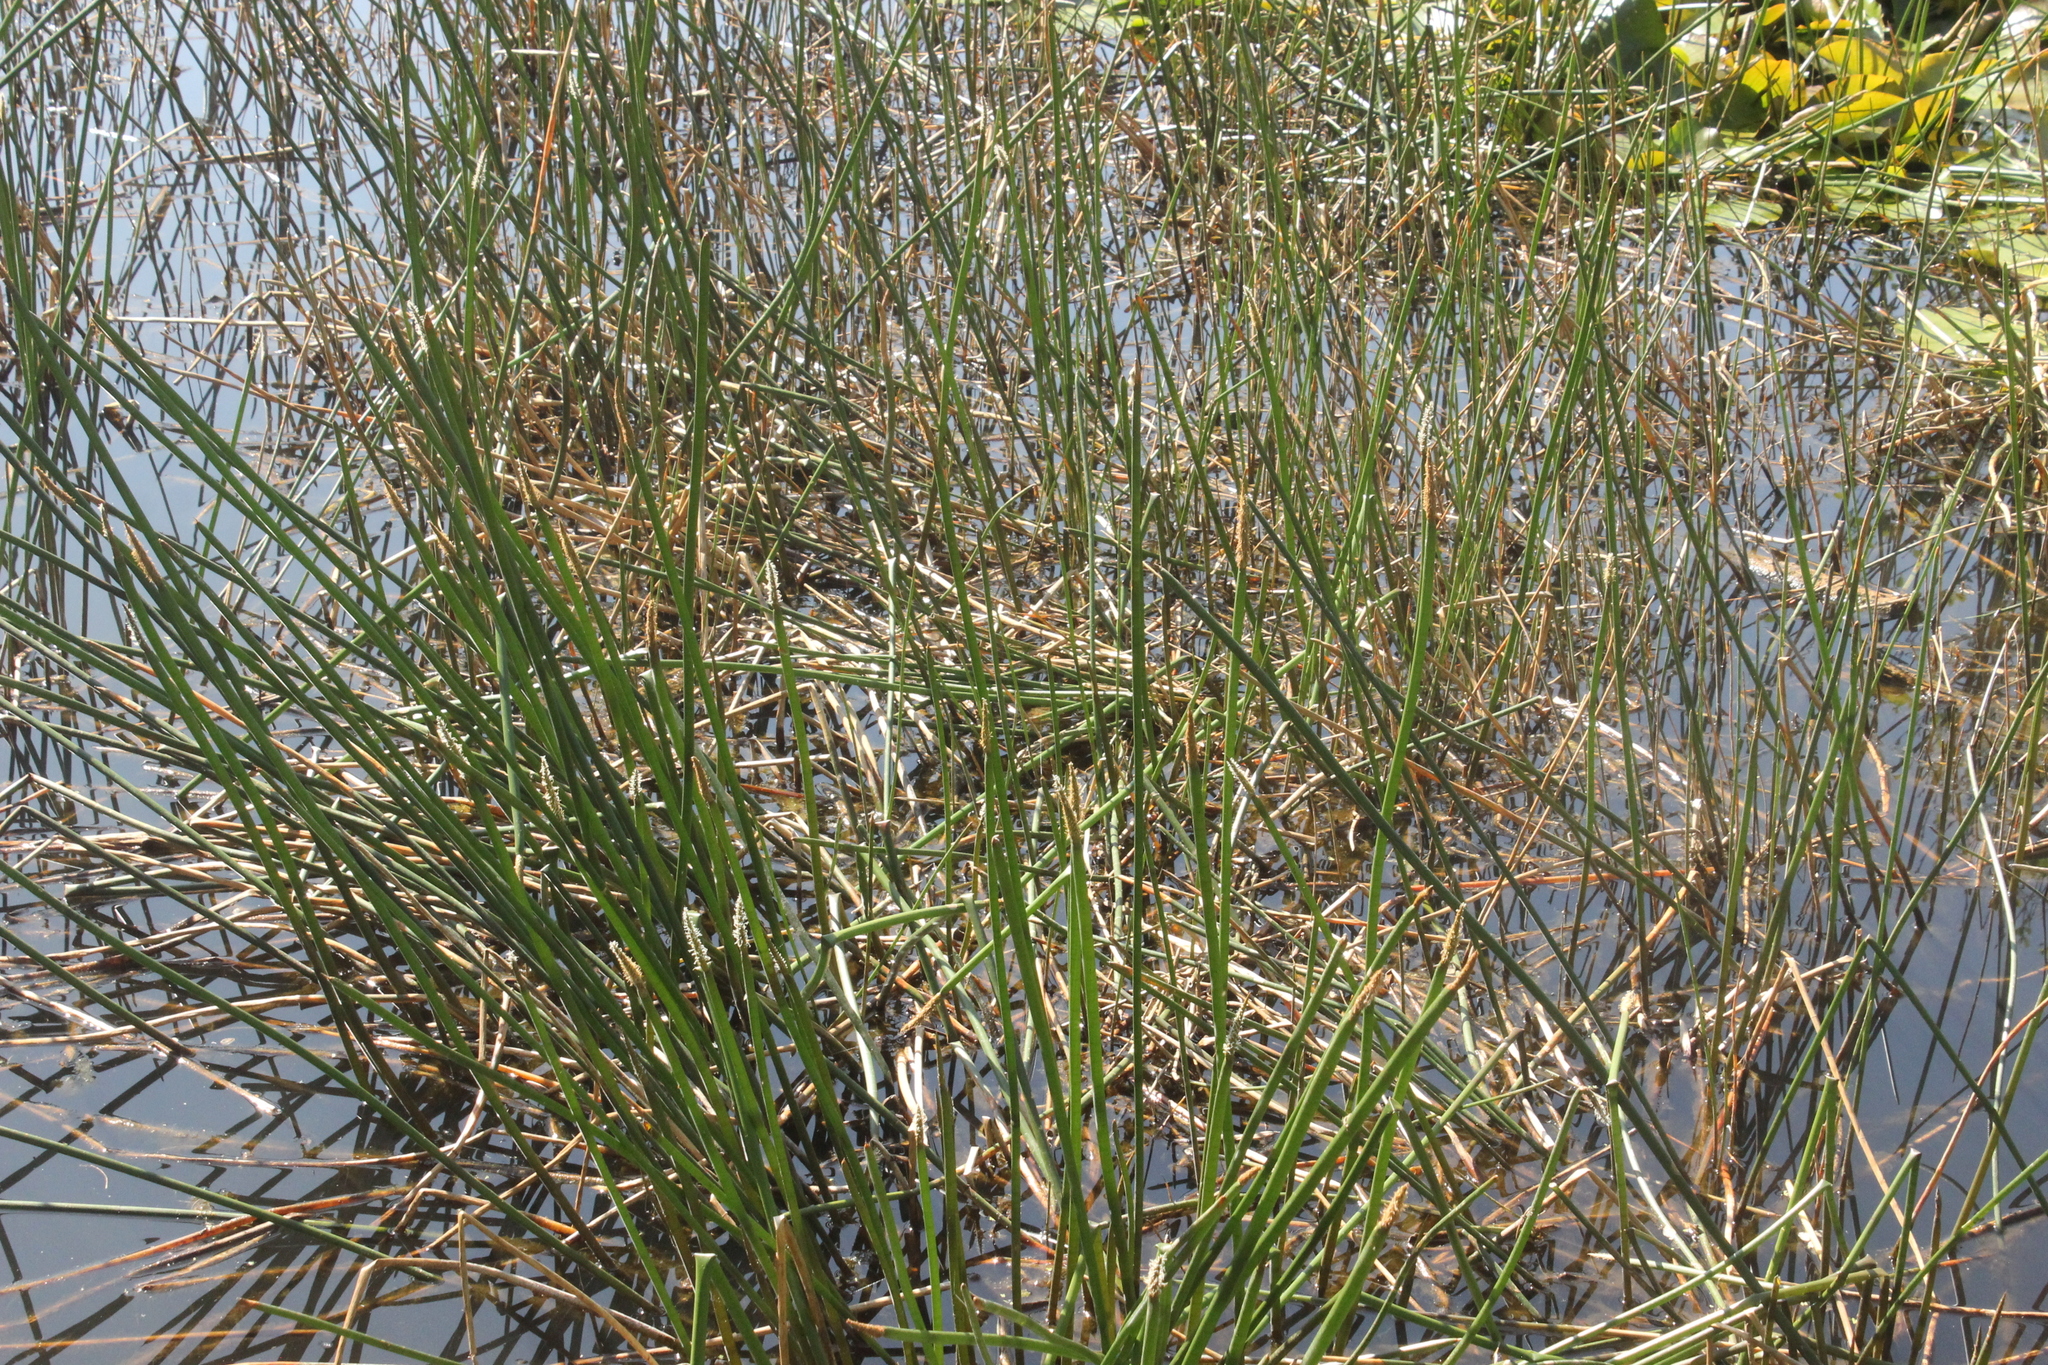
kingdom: Plantae
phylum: Tracheophyta
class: Liliopsida
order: Poales
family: Cyperaceae
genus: Eleocharis
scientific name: Eleocharis sphacelata
